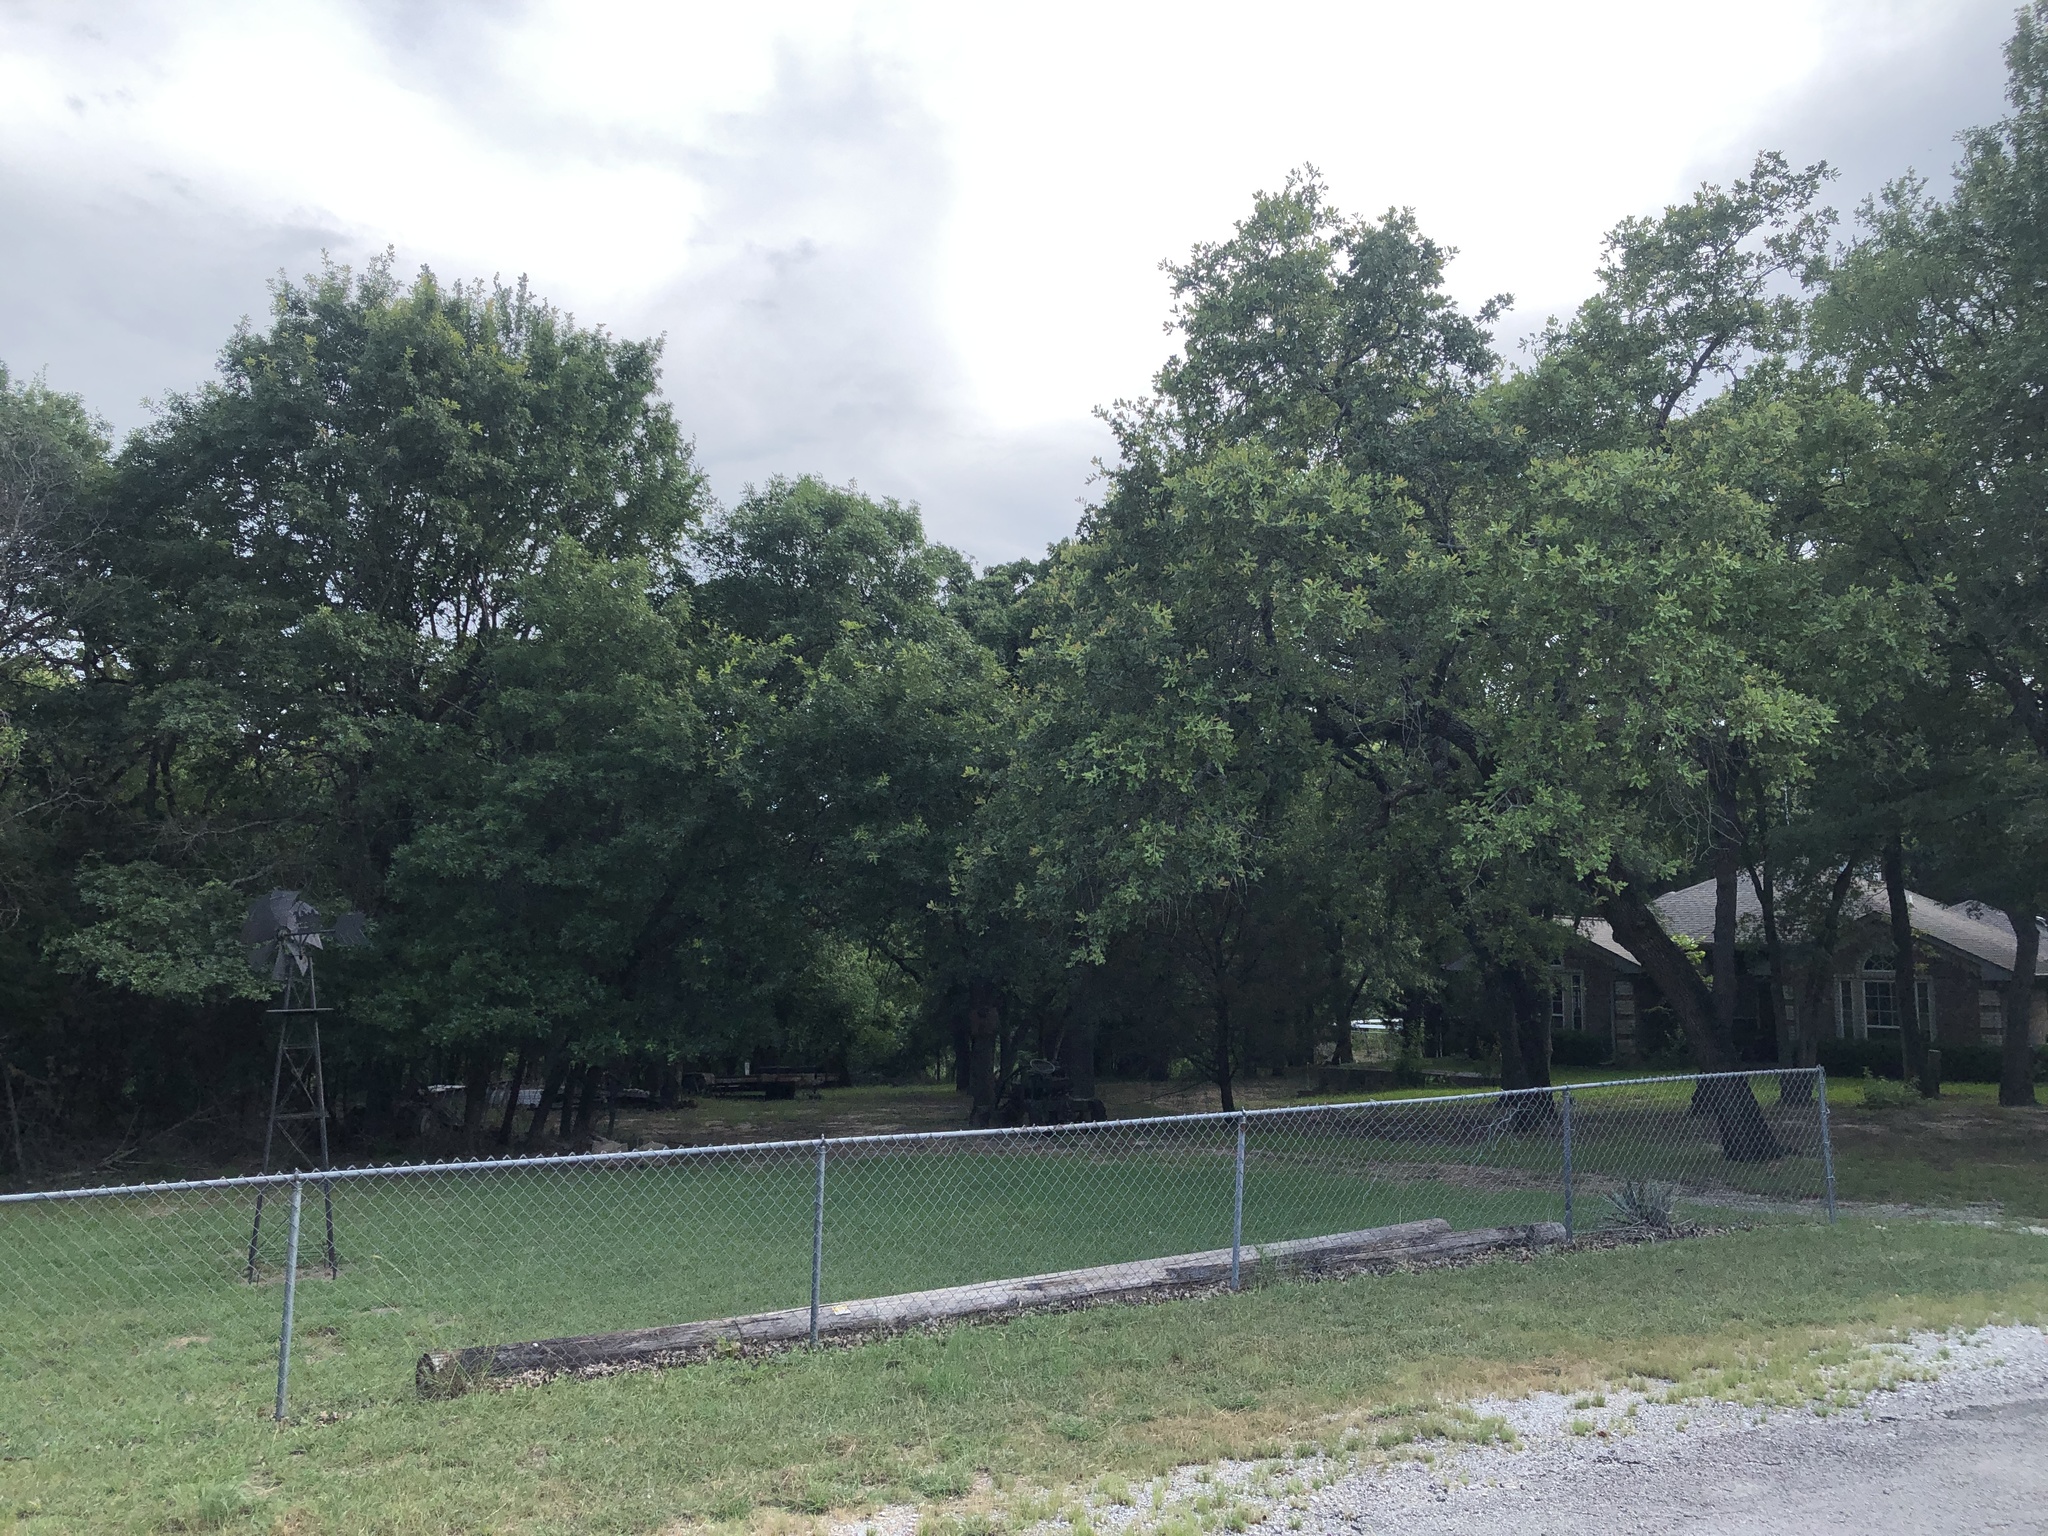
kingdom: Animalia
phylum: Chordata
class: Aves
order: Passeriformes
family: Vireonidae
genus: Vireo
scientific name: Vireo griseus
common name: White-eyed vireo
